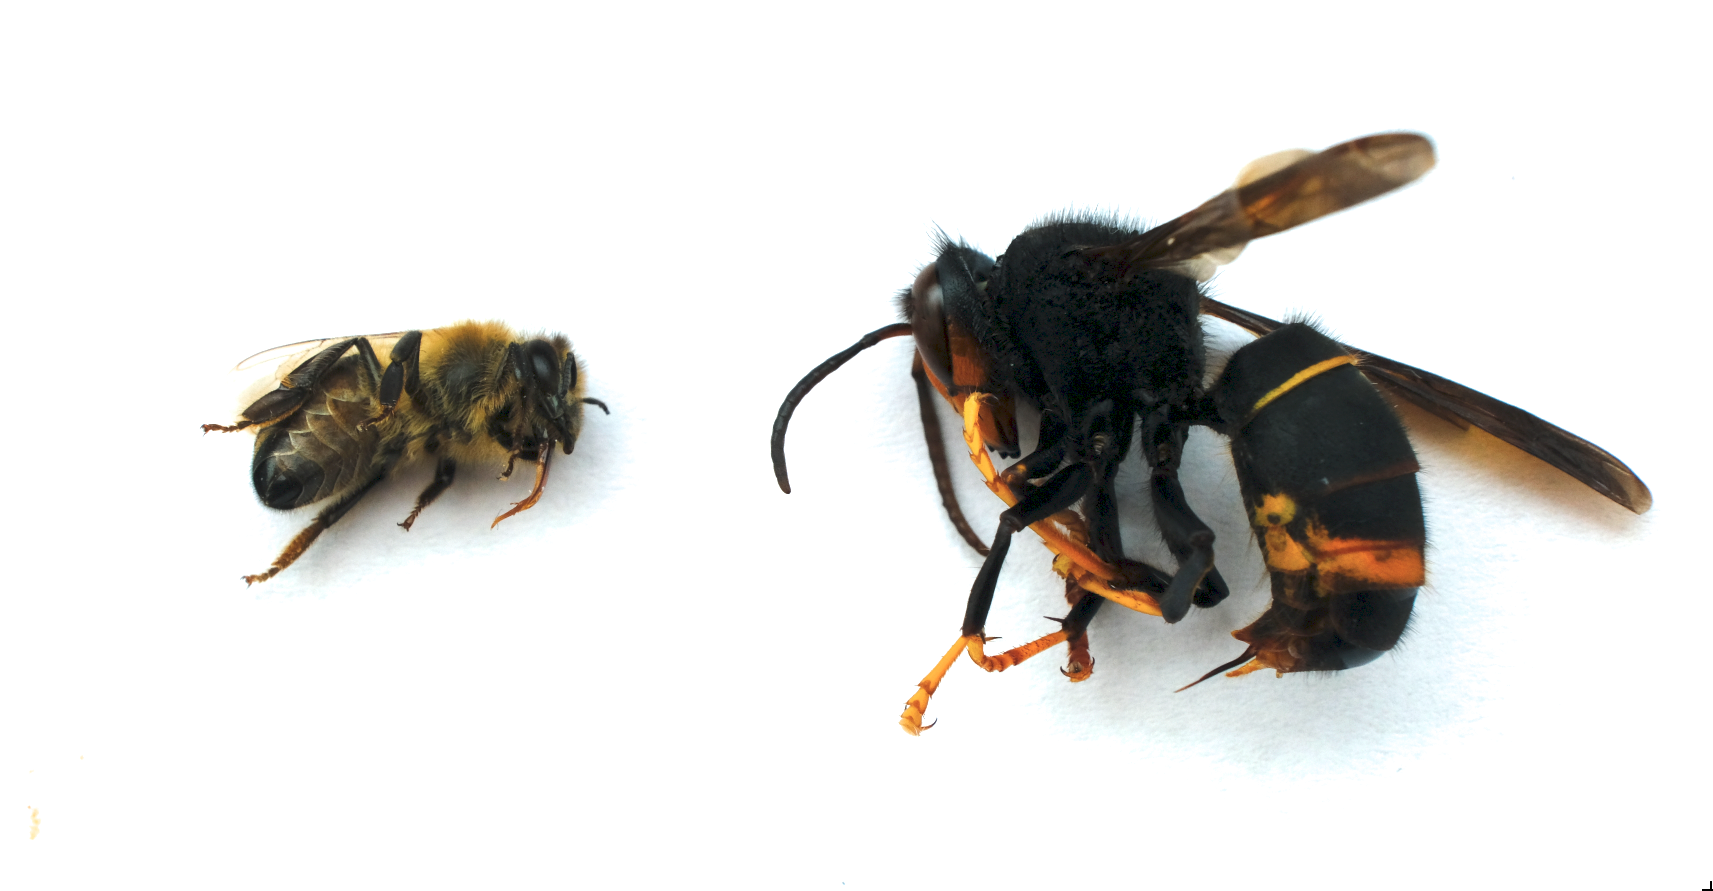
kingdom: Animalia
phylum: Arthropoda
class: Insecta
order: Hymenoptera
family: Vespidae
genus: Vespa
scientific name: Vespa velutina
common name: Asian hornet
